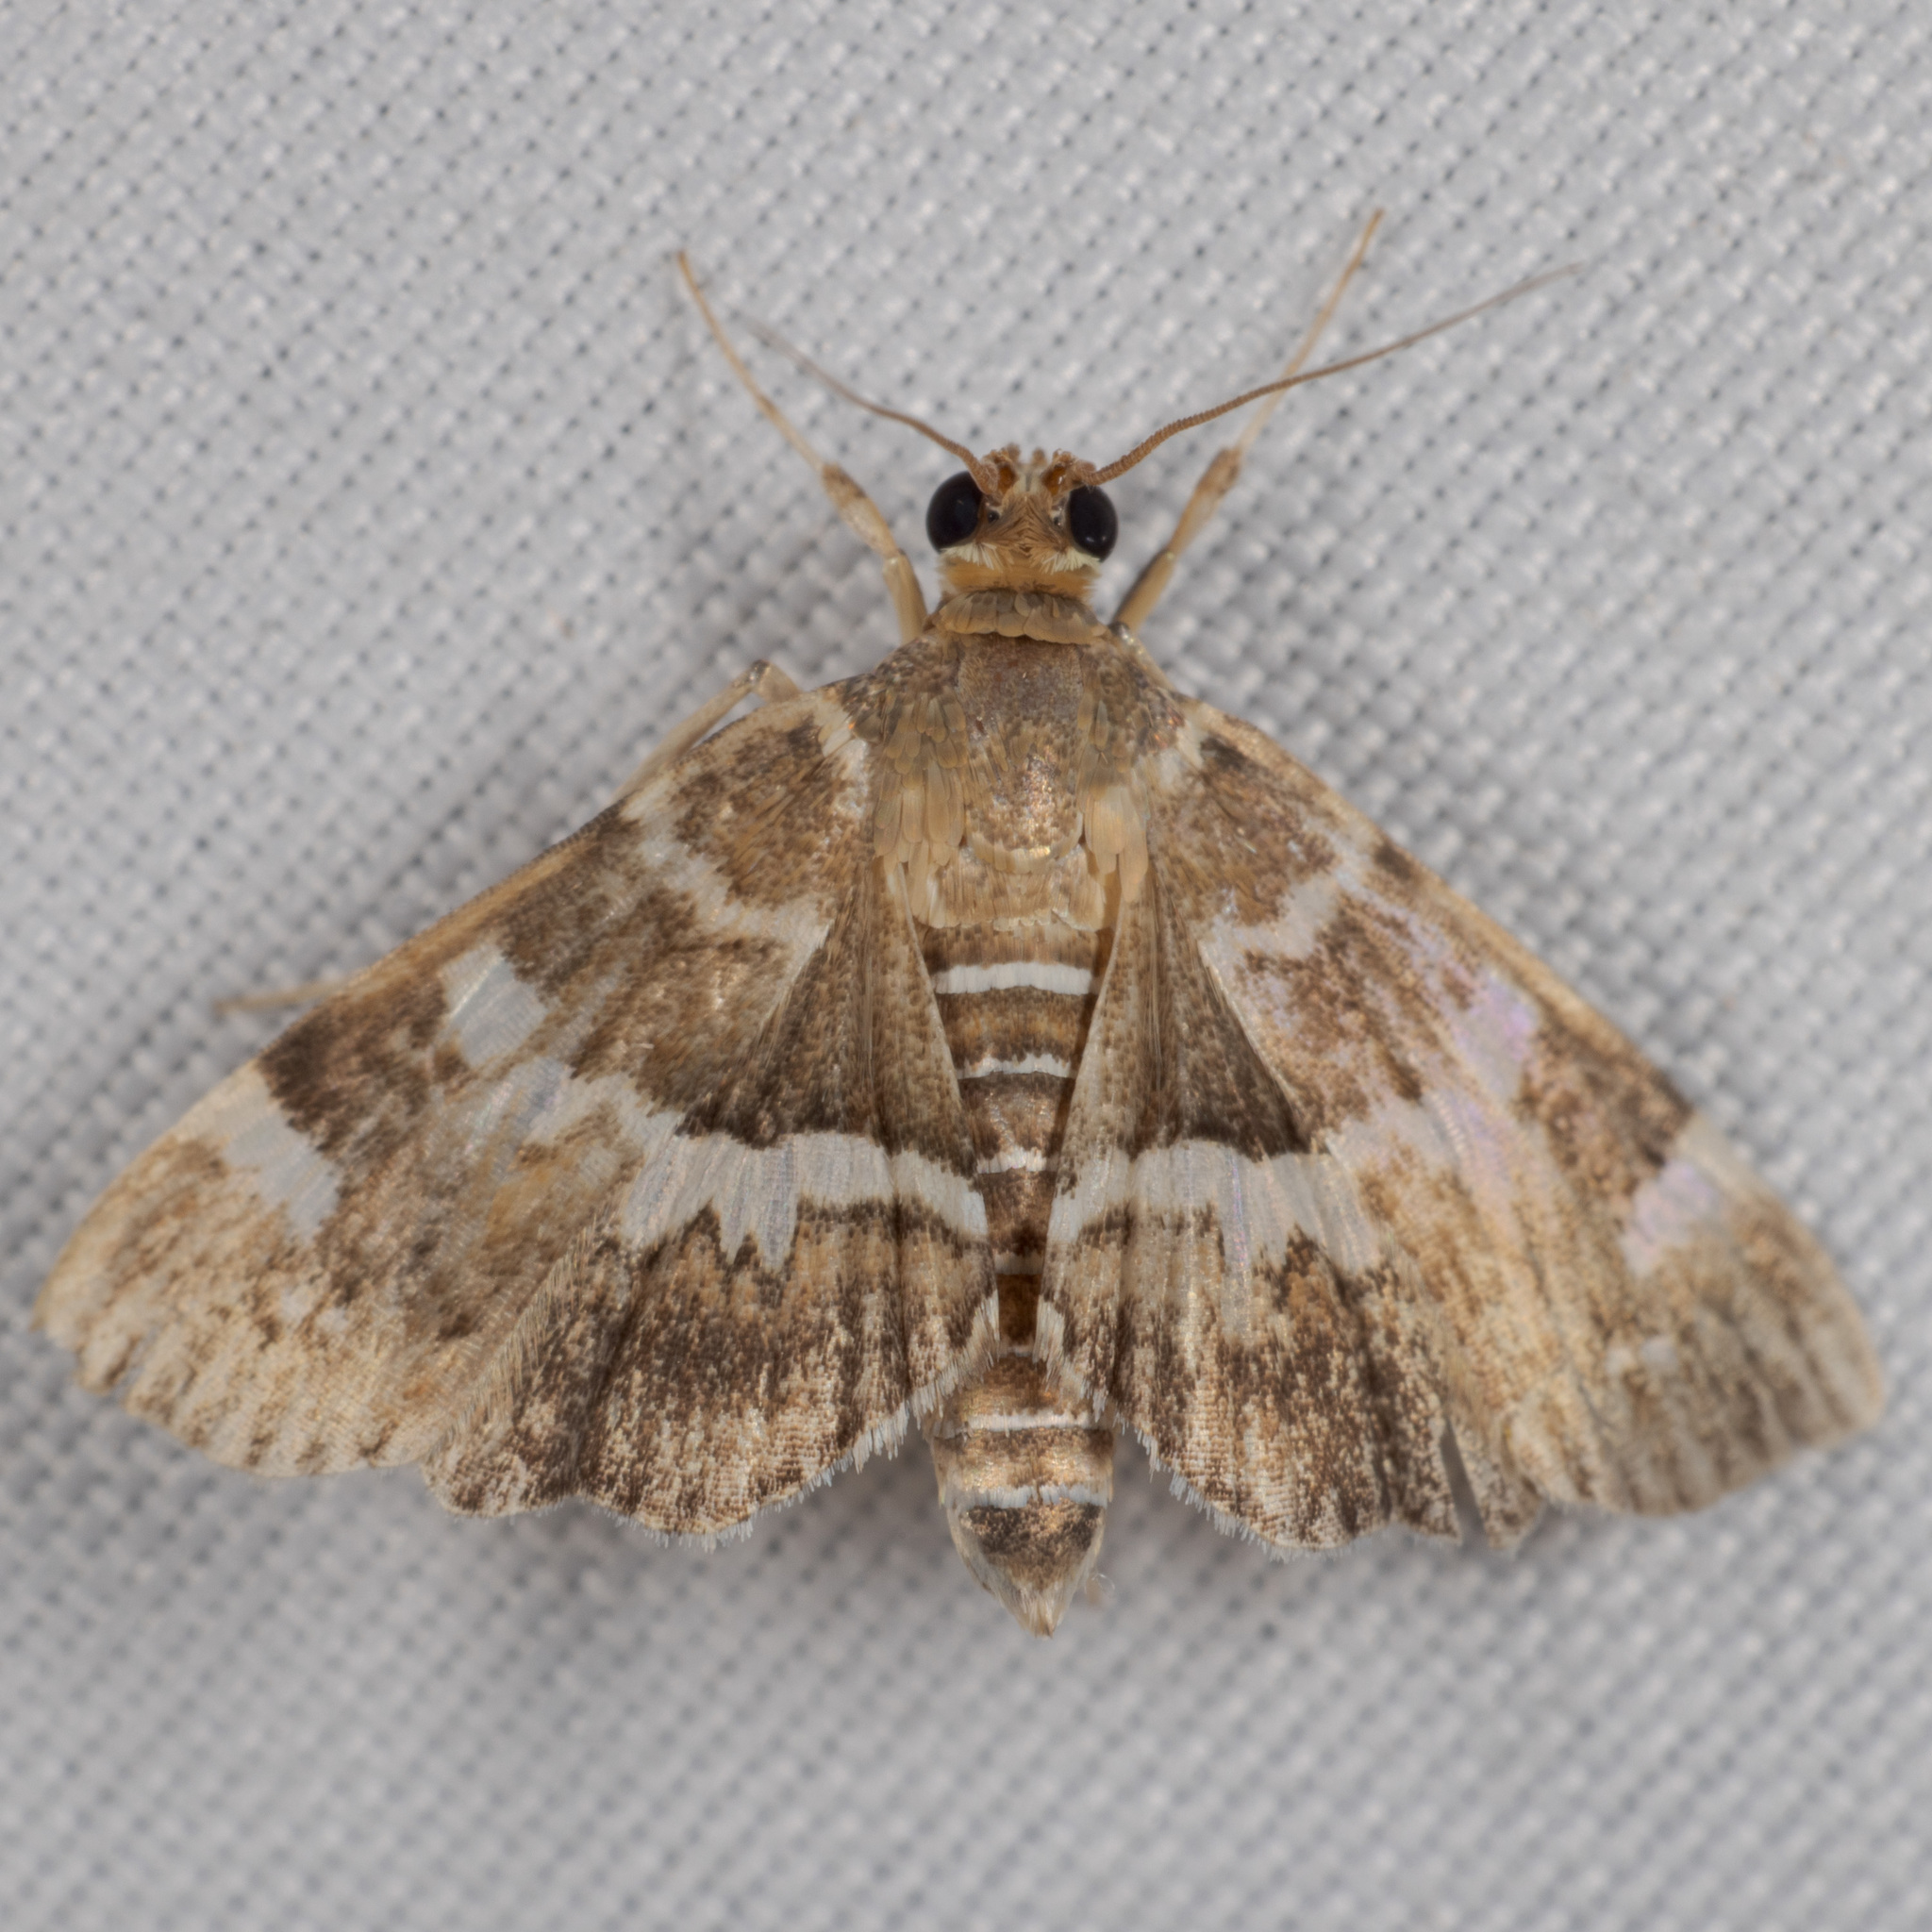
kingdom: Animalia
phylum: Arthropoda
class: Insecta
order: Lepidoptera
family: Crambidae
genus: Hymenia
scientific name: Hymenia perspectalis
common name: Spotted beet webworm
